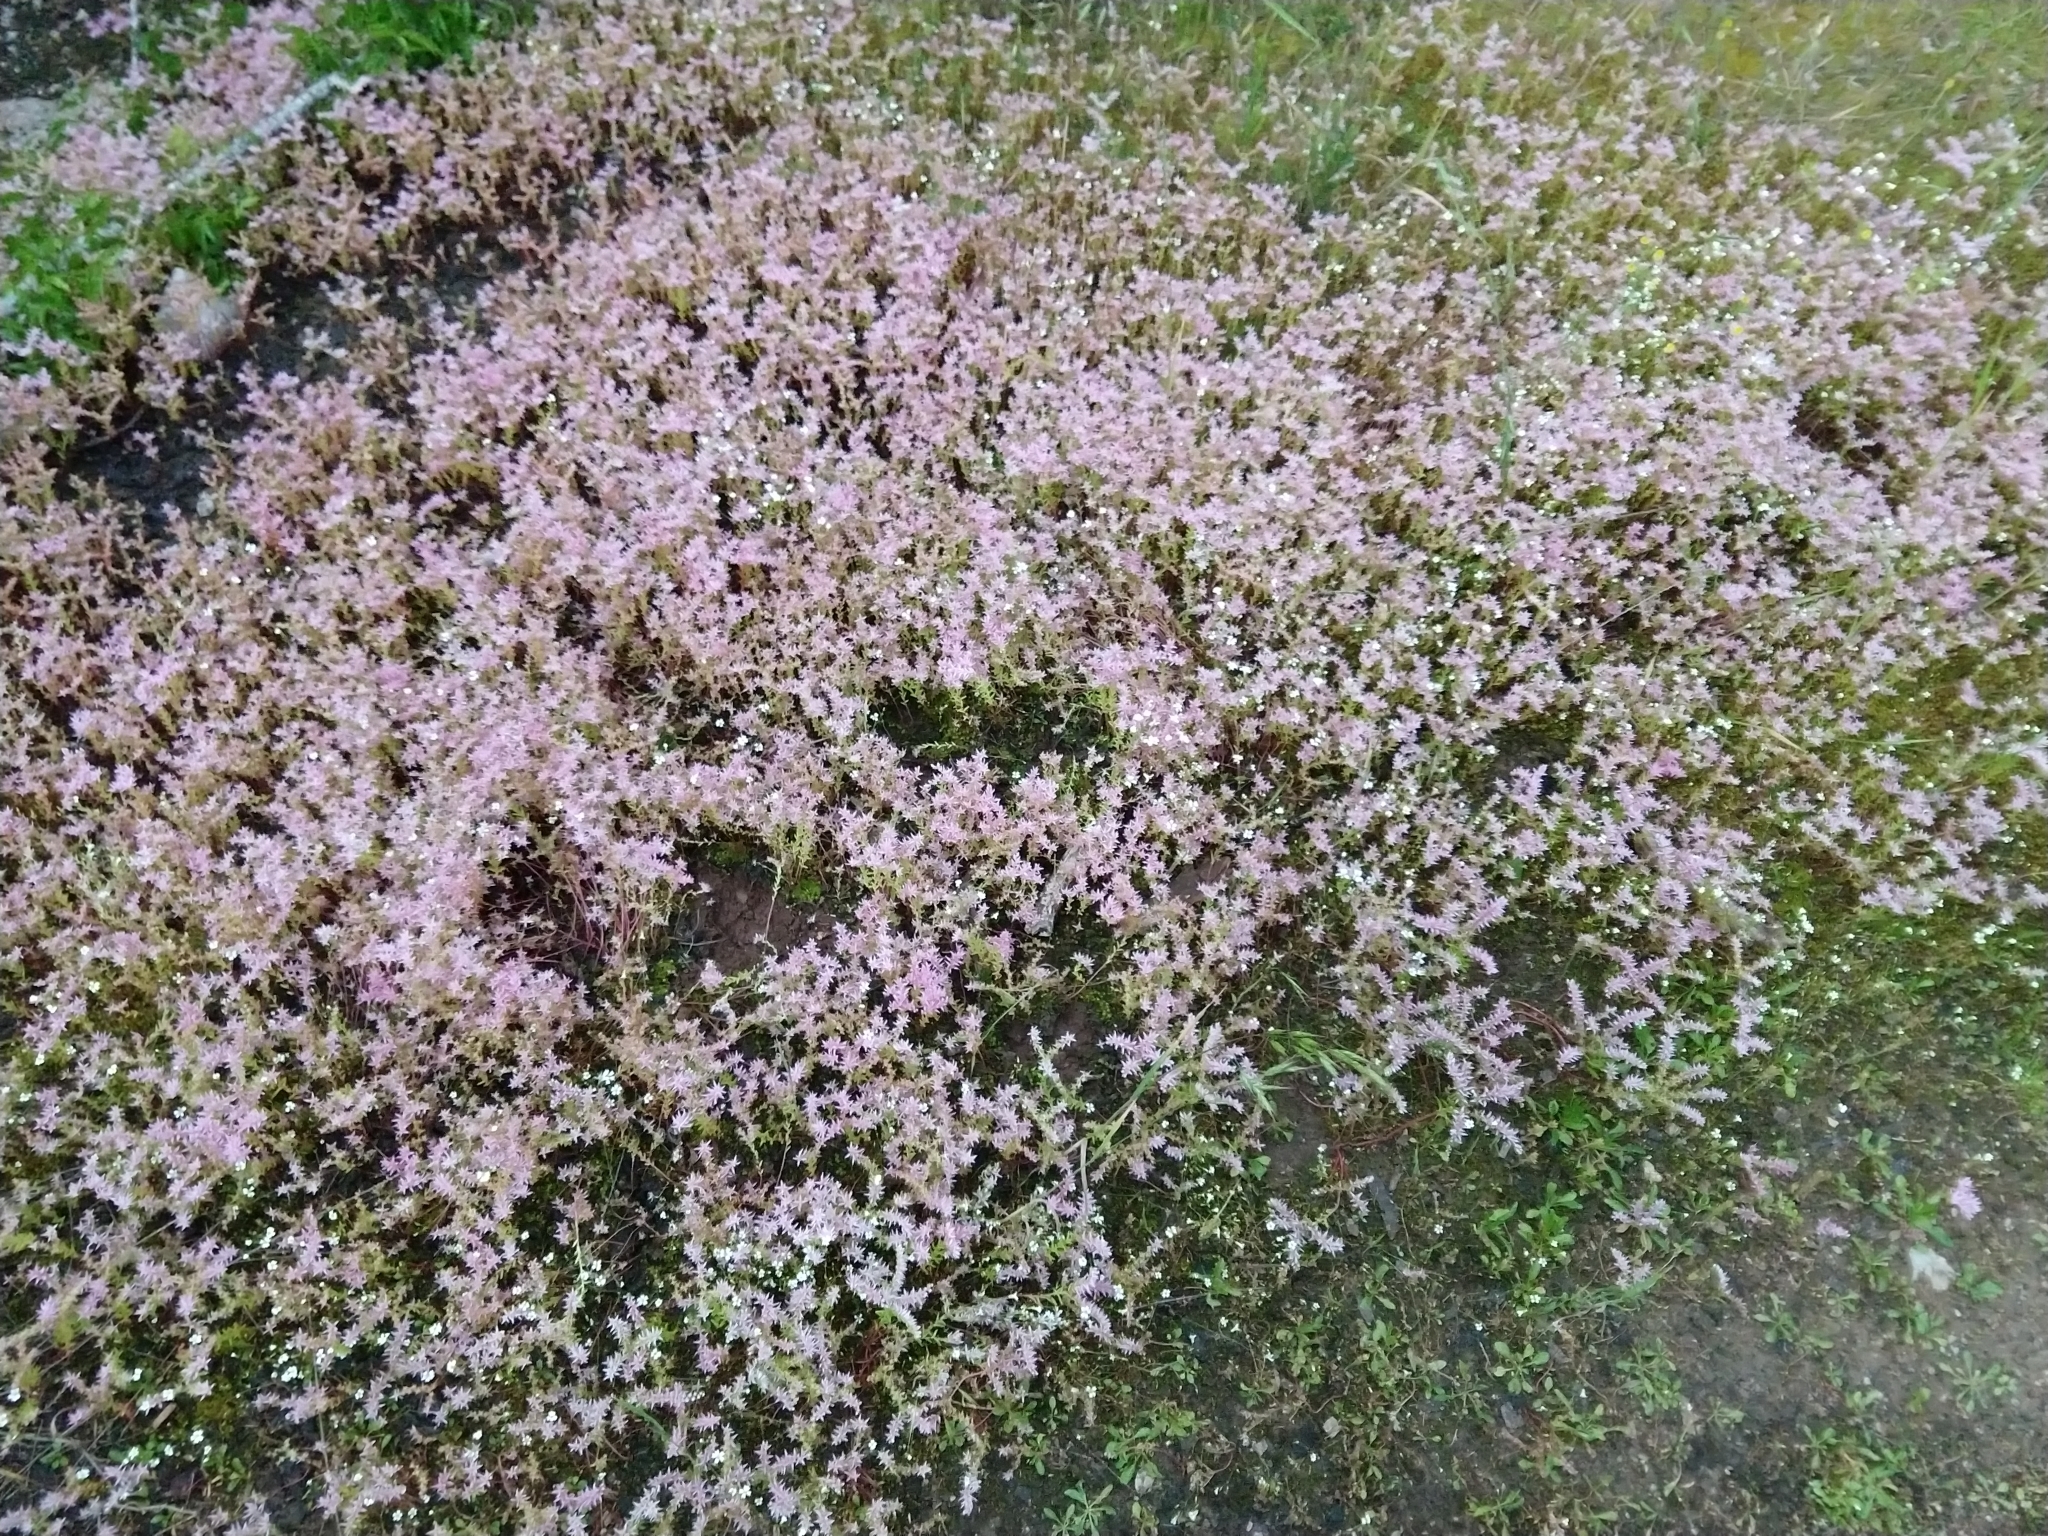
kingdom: Plantae
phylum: Tracheophyta
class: Magnoliopsida
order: Saxifragales
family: Crassulaceae
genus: Sedum
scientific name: Sedum pulchellum
